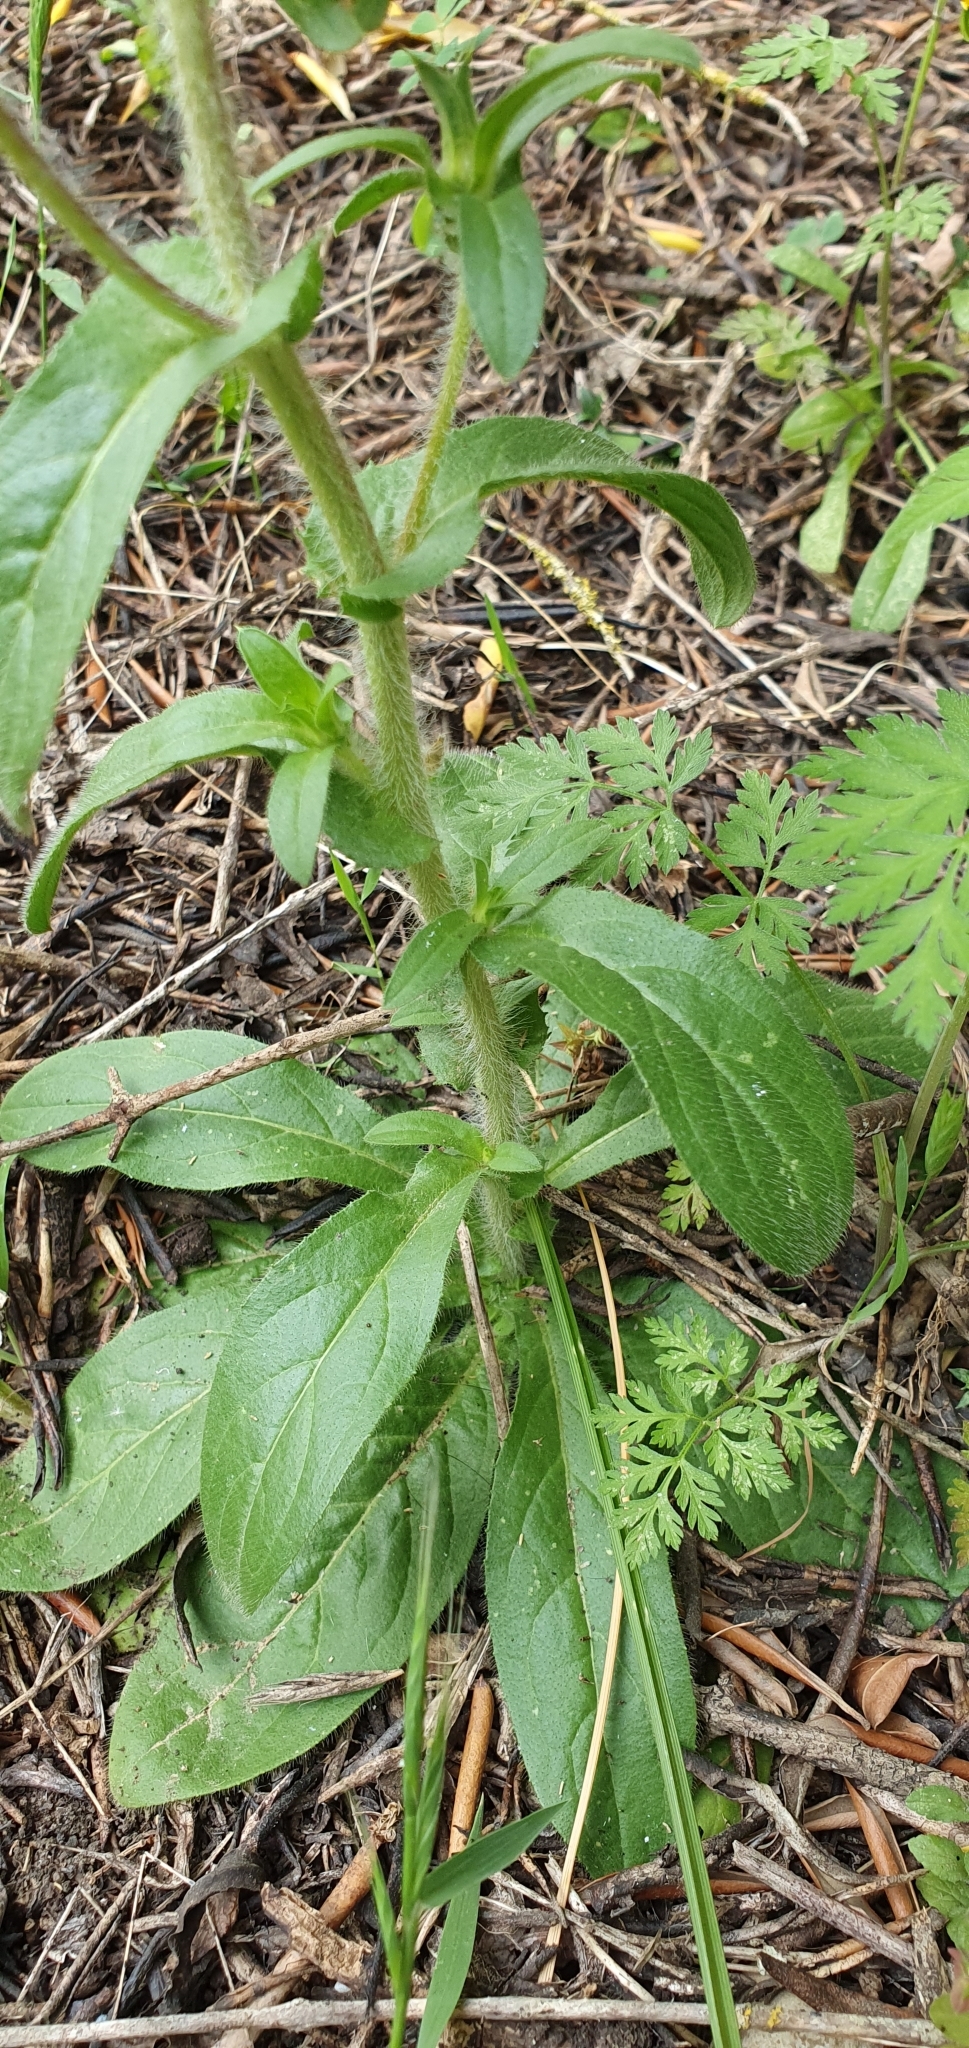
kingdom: Plantae
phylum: Tracheophyta
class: Magnoliopsida
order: Asterales
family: Asteraceae
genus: Pallenis
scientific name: Pallenis spinosa
